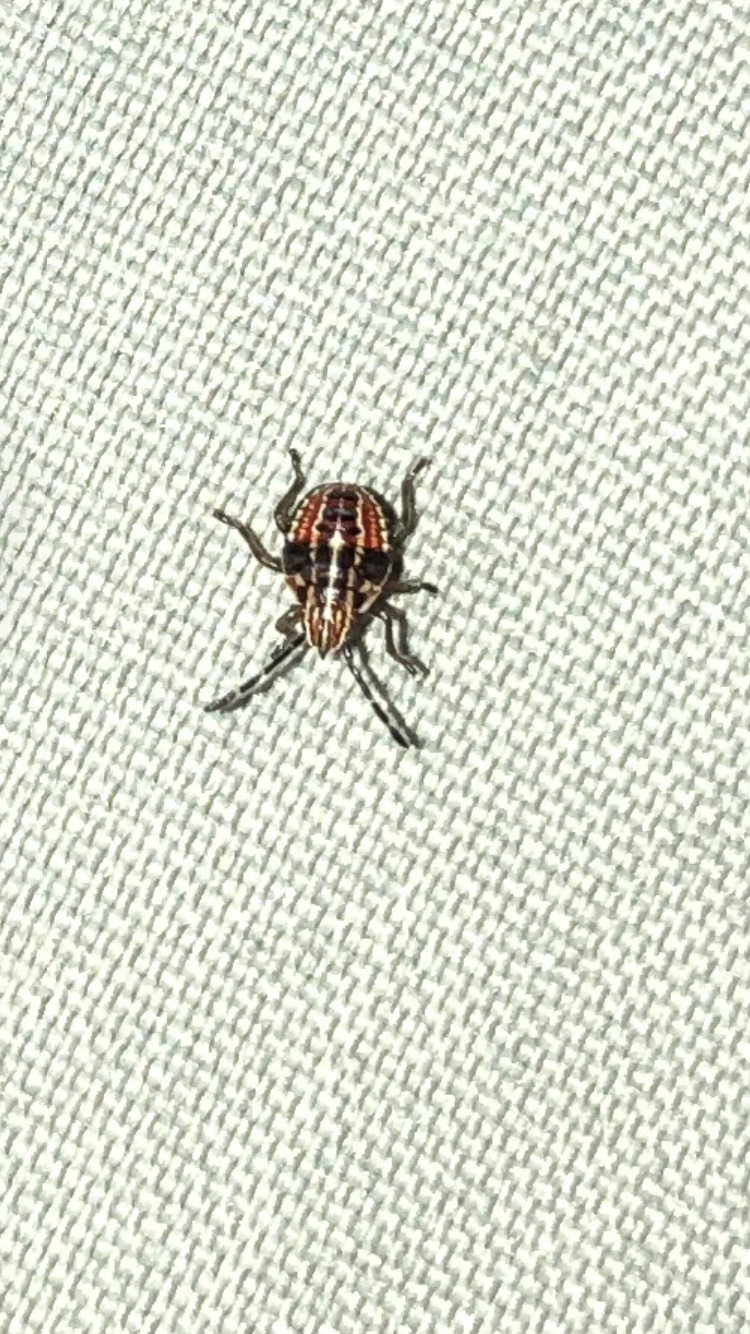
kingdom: Animalia
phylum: Arthropoda
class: Insecta
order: Hemiptera
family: Acanthosomatidae
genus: Elasmucha
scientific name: Elasmucha lateralis
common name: Shield bug
